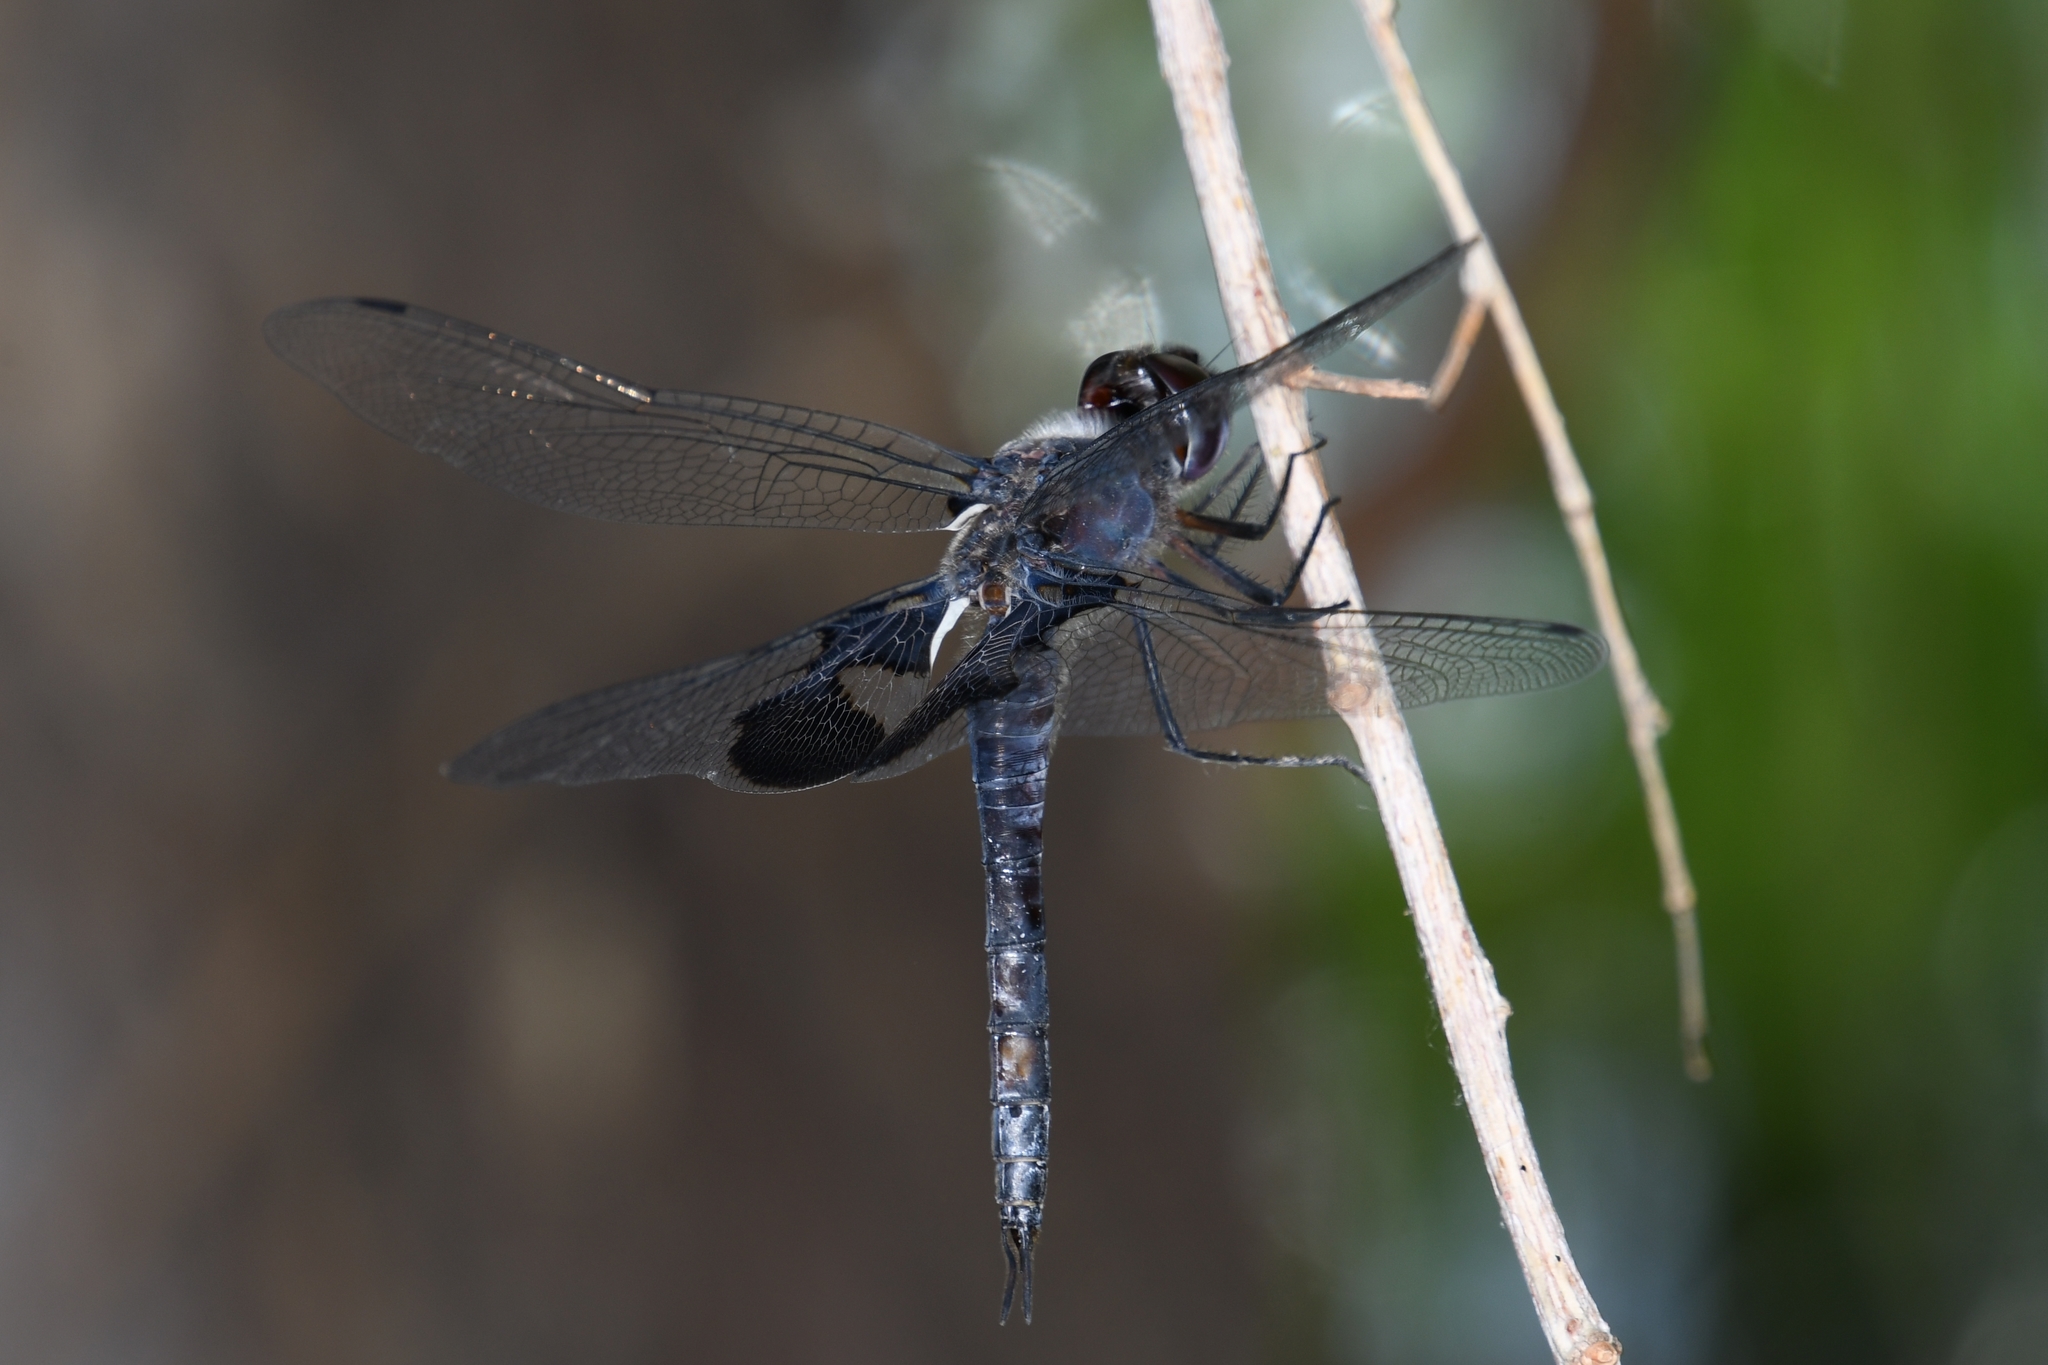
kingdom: Animalia
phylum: Arthropoda
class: Insecta
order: Odonata
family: Libellulidae
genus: Tramea
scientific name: Tramea lacerata
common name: Black saddlebags
